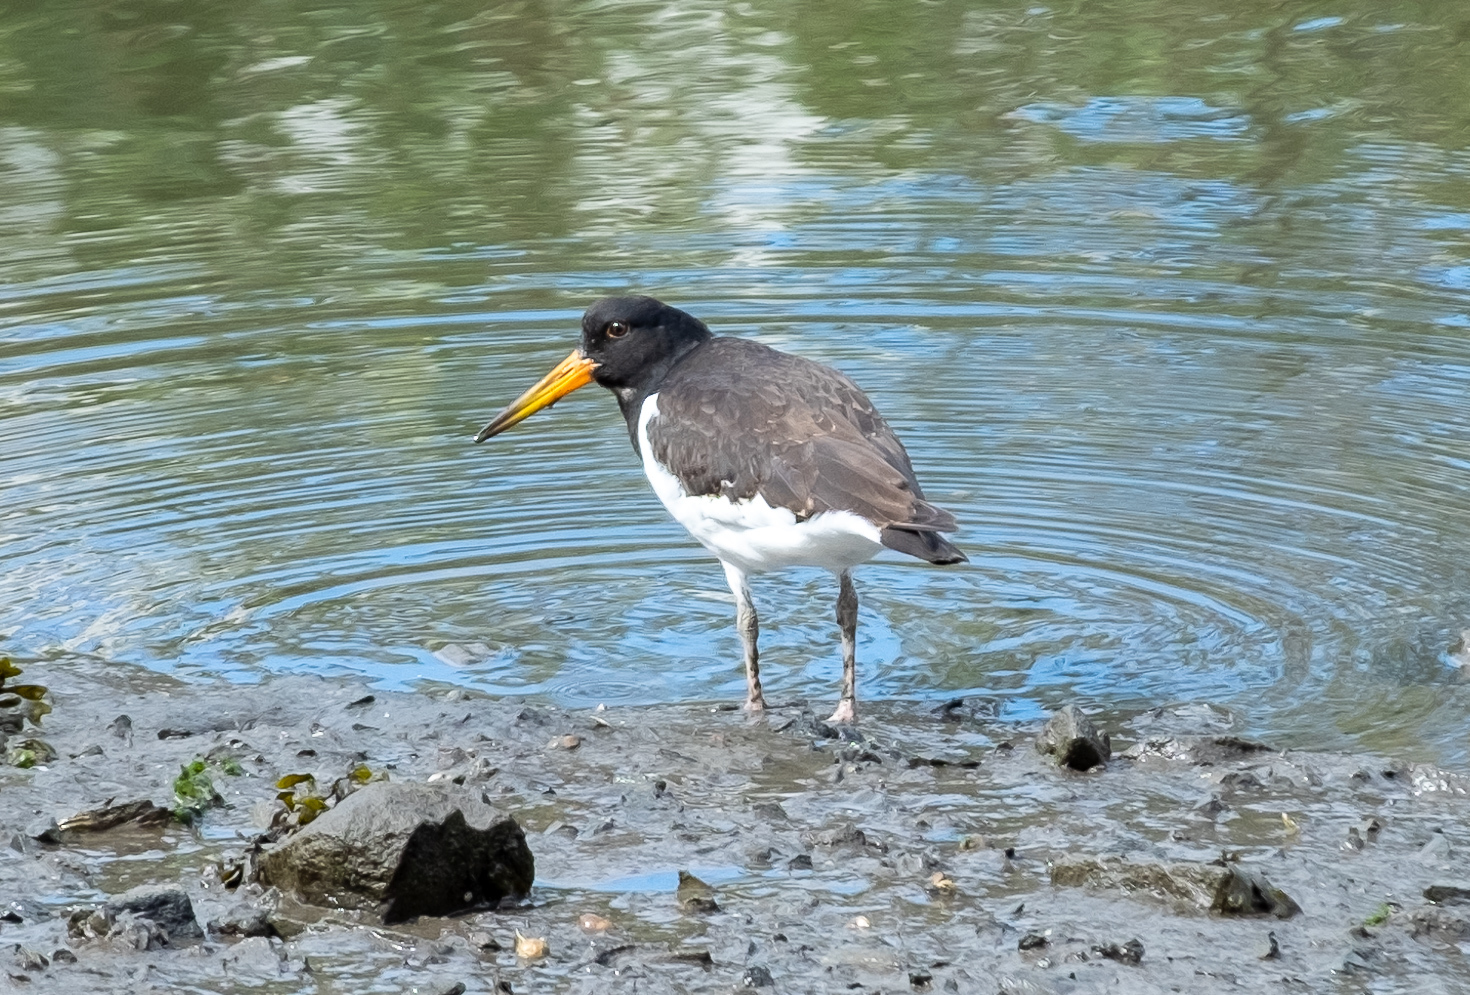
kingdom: Animalia
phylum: Chordata
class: Aves
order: Charadriiformes
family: Haematopodidae
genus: Haematopus
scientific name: Haematopus ostralegus
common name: Eurasian oystercatcher
